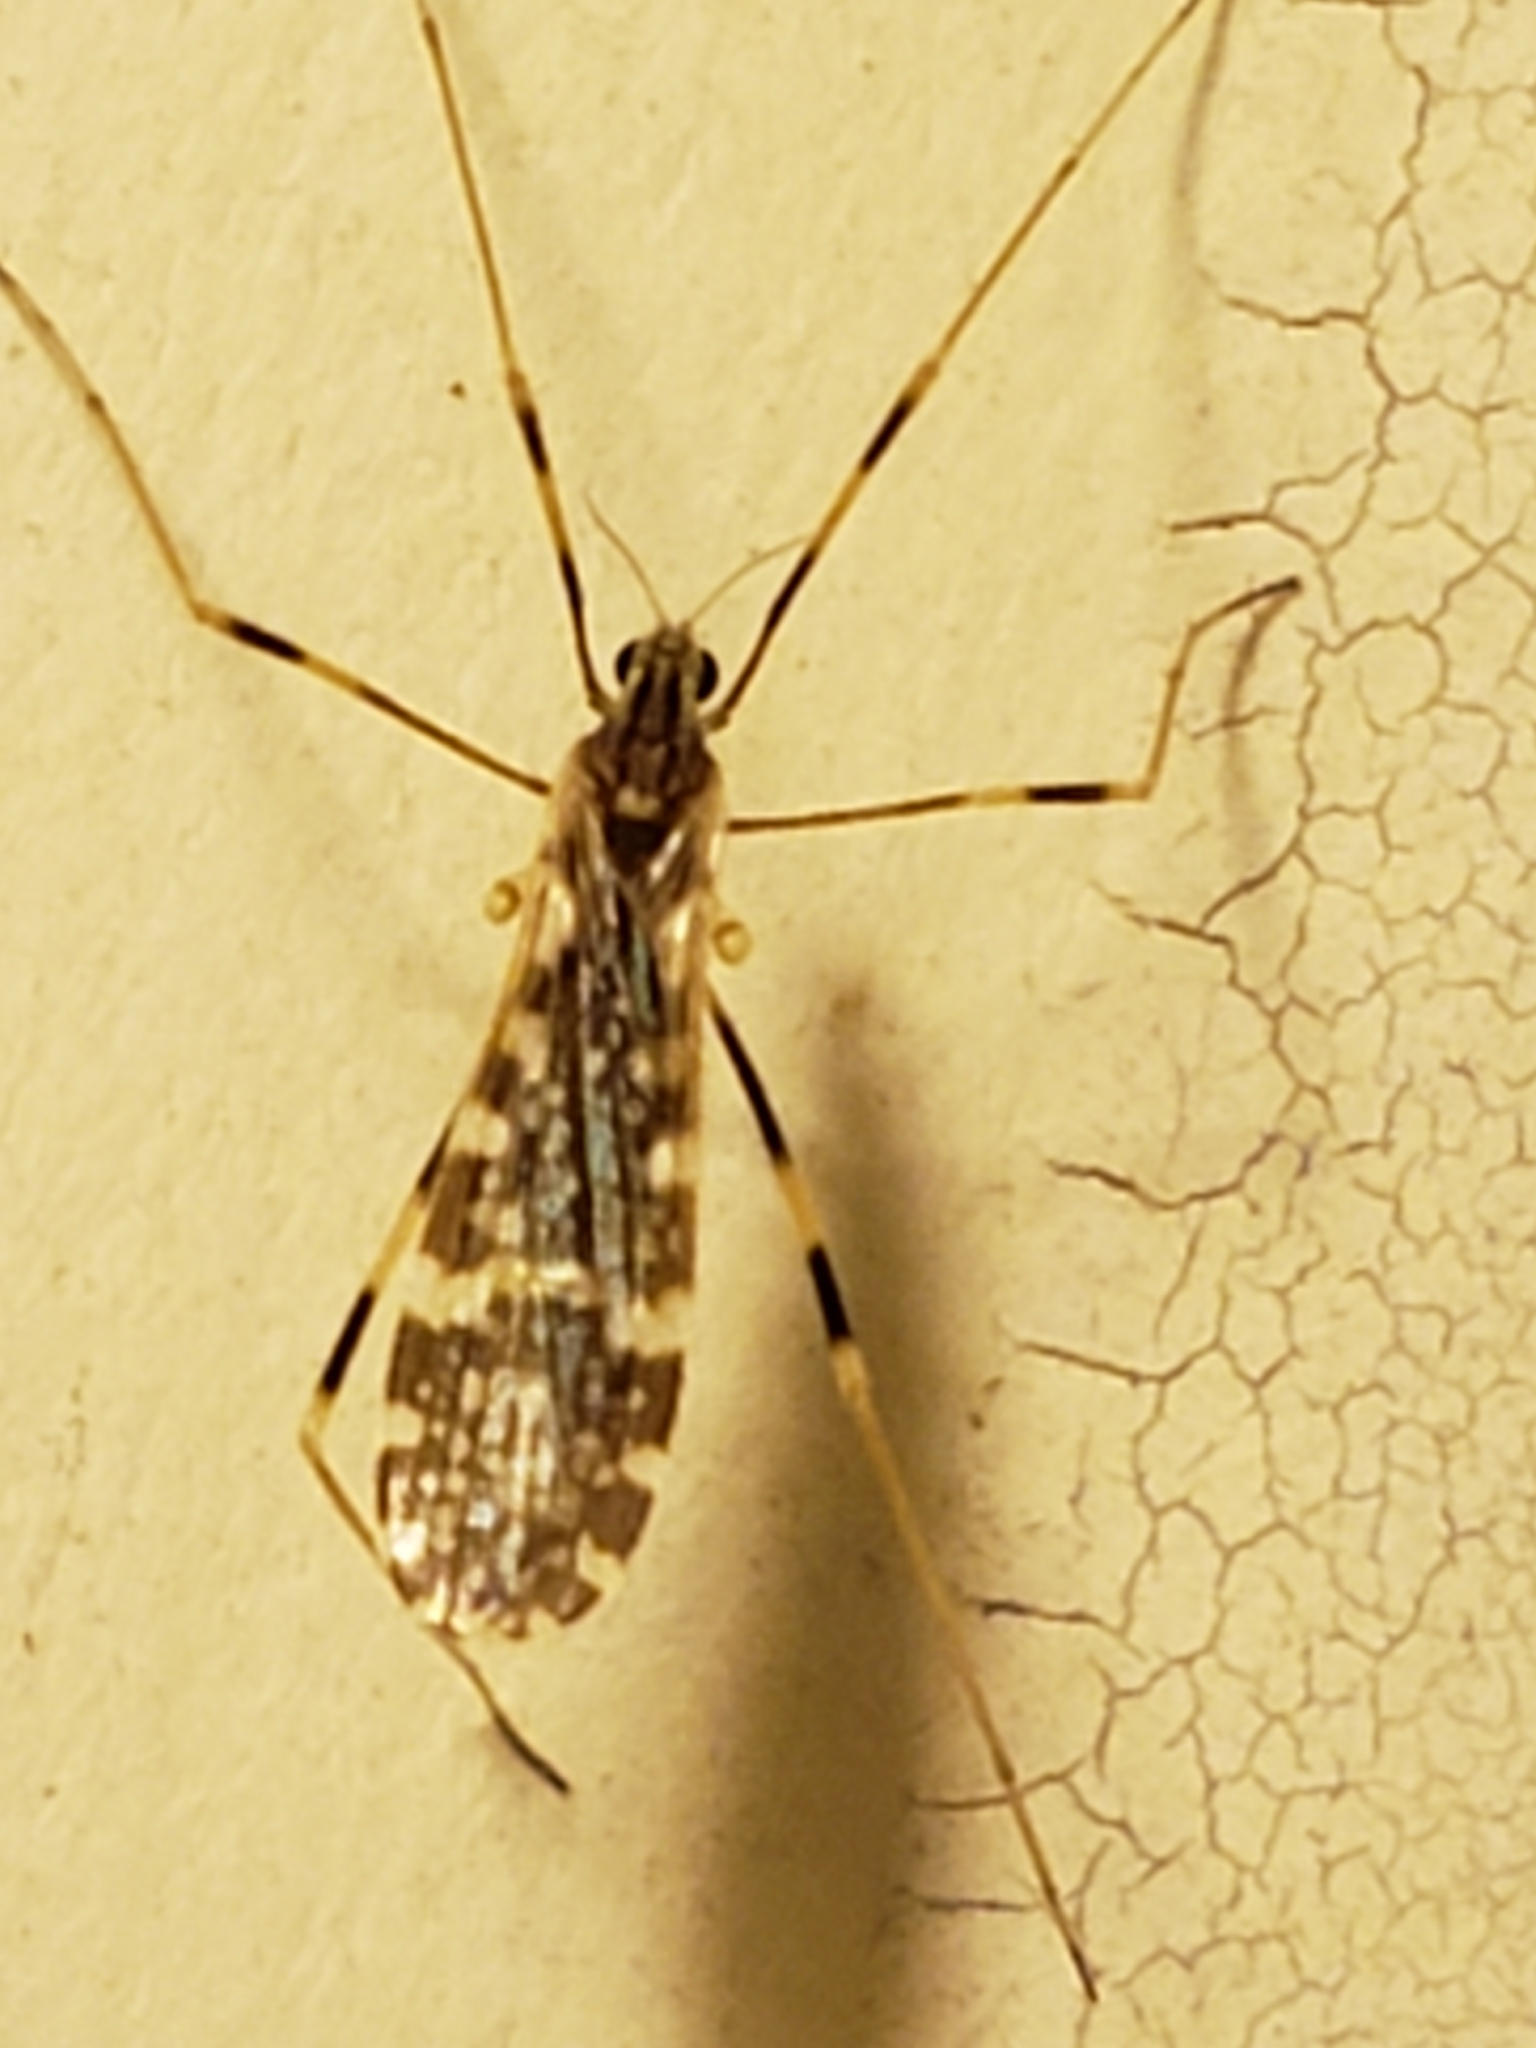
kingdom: Animalia
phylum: Arthropoda
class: Insecta
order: Diptera
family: Limoniidae
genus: Erioptera
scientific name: Erioptera caliptera
